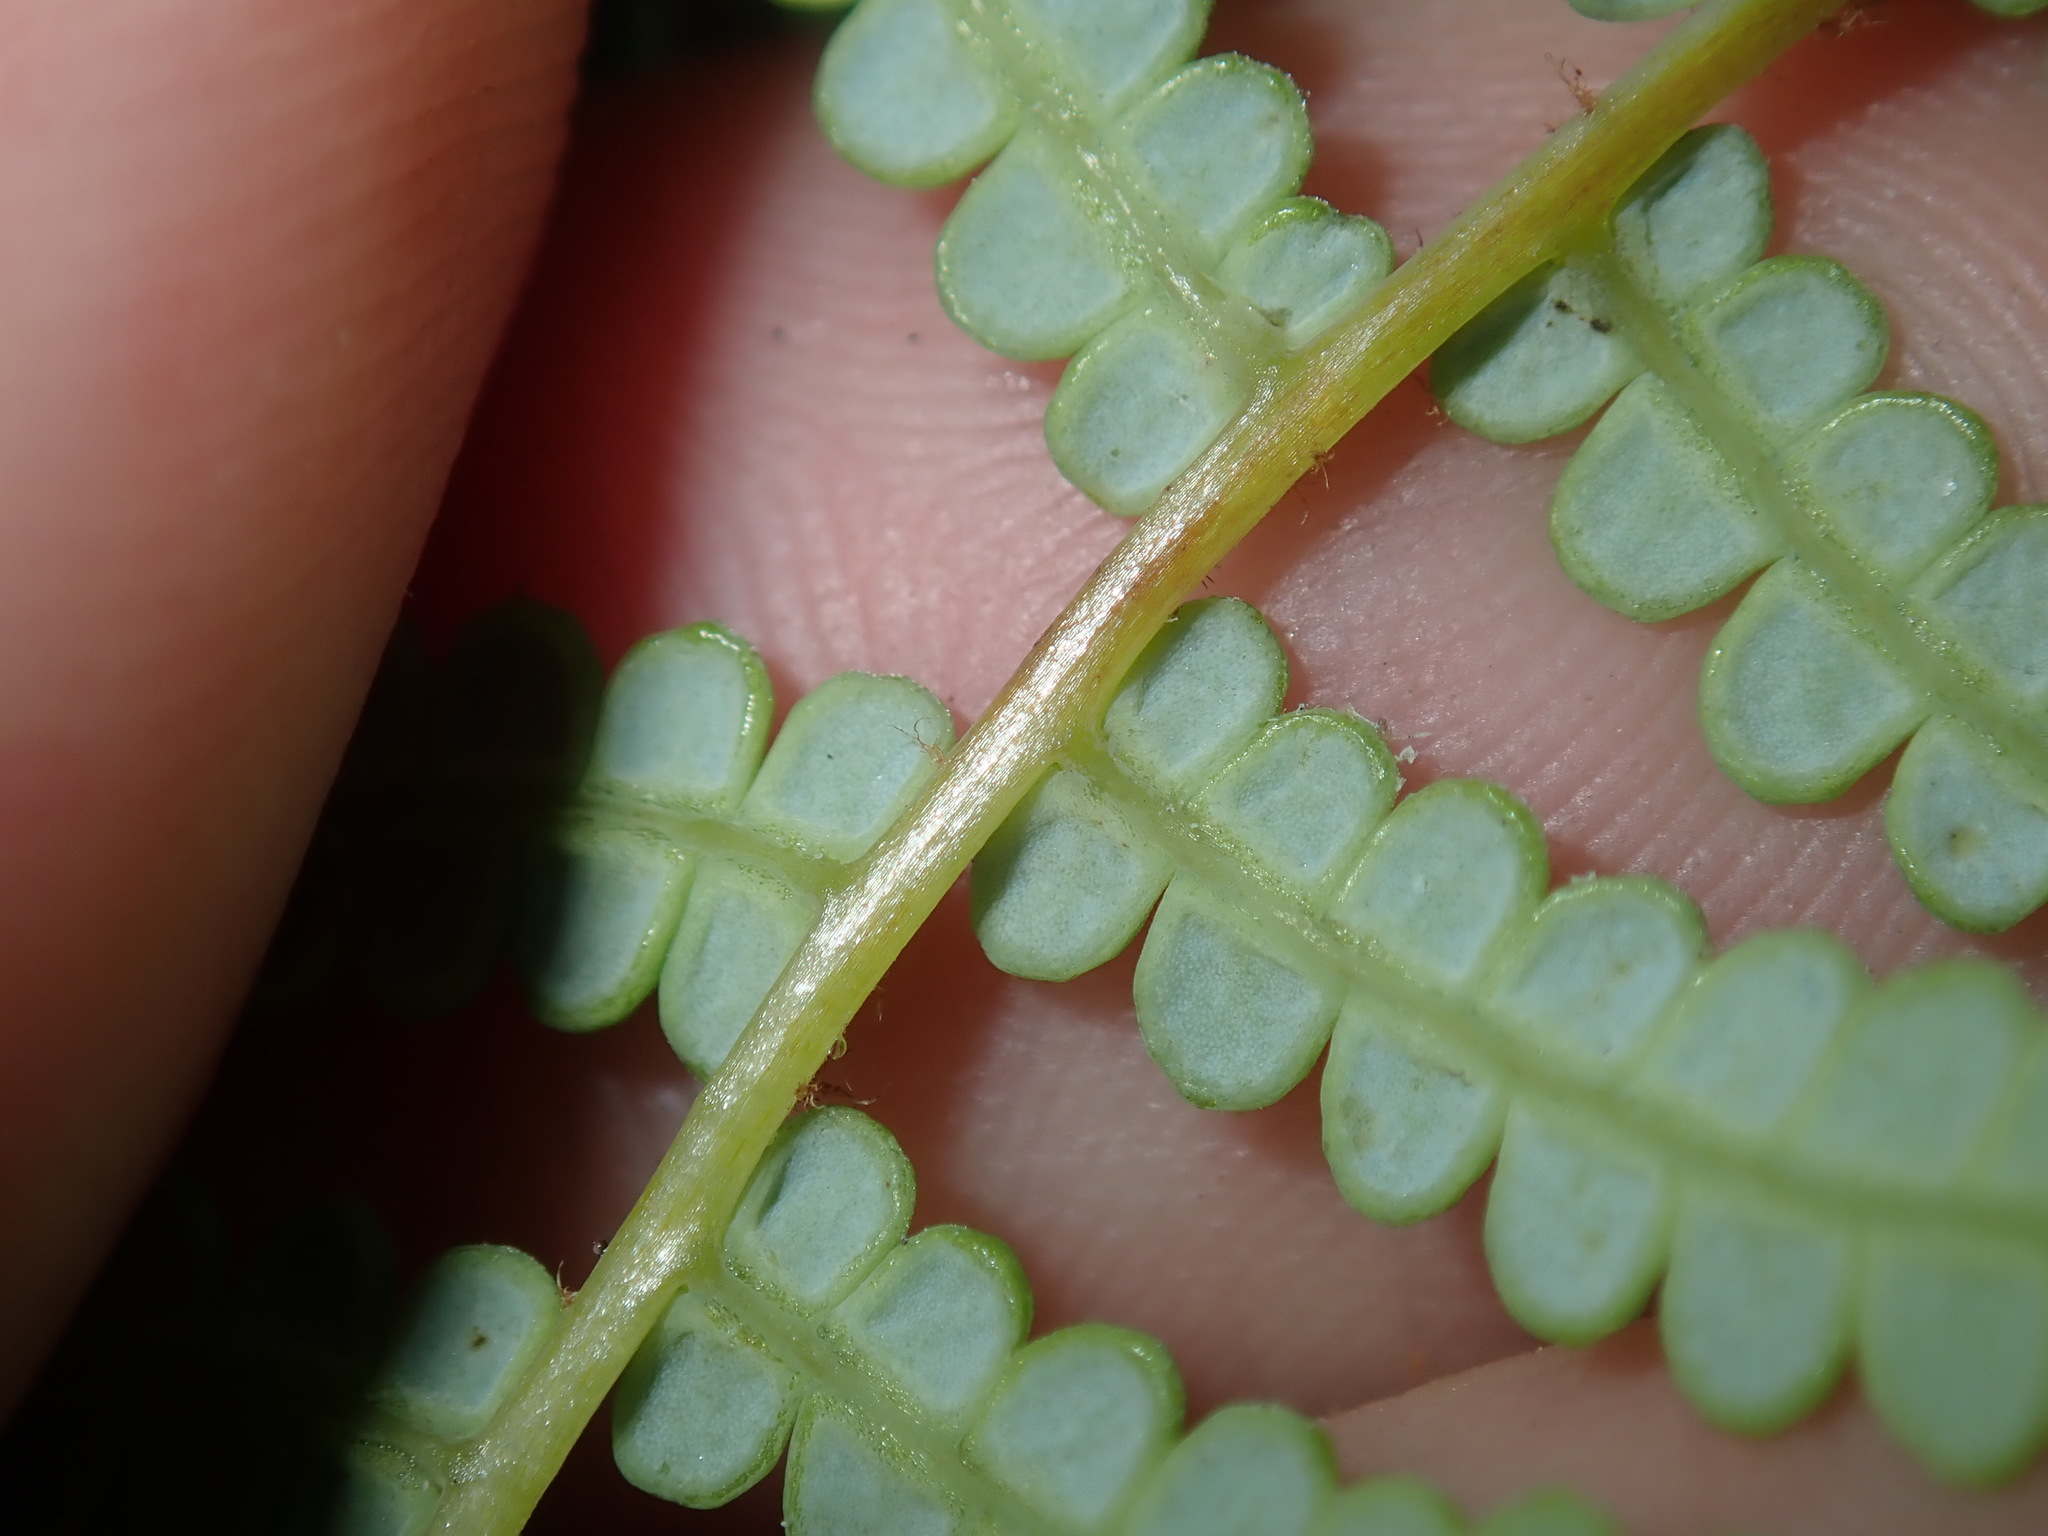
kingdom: Plantae
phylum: Tracheophyta
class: Polypodiopsida
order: Gleicheniales
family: Gleicheniaceae
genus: Gleichenia
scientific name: Gleichenia microphylla
